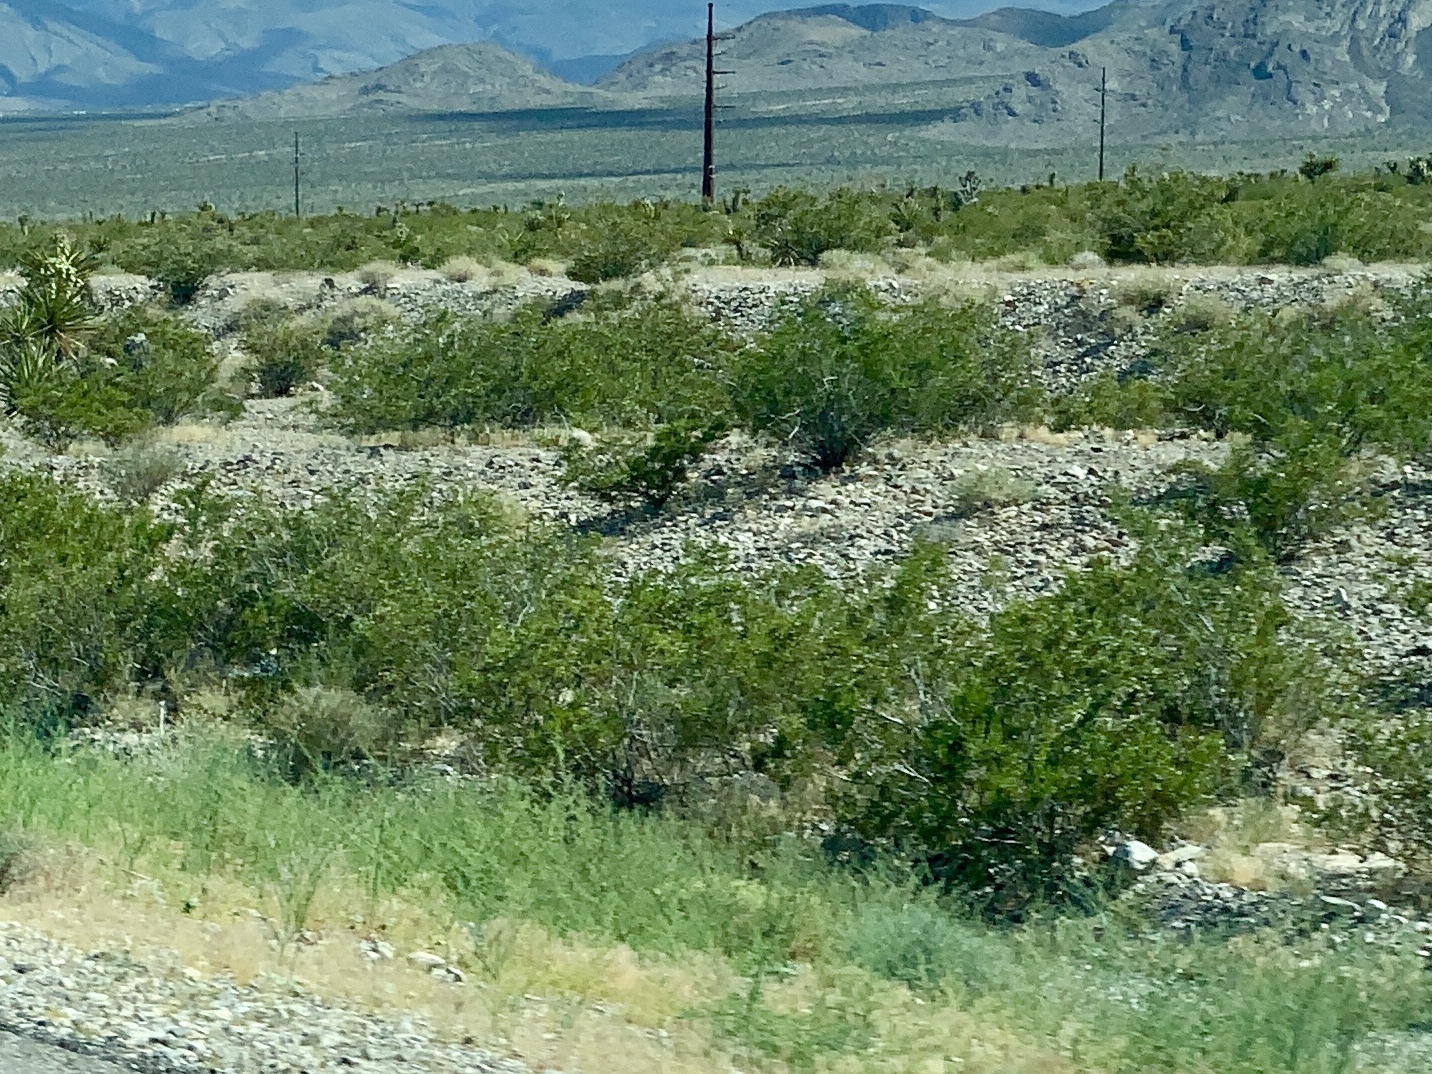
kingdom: Plantae
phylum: Tracheophyta
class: Magnoliopsida
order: Zygophyllales
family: Zygophyllaceae
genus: Larrea
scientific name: Larrea tridentata
